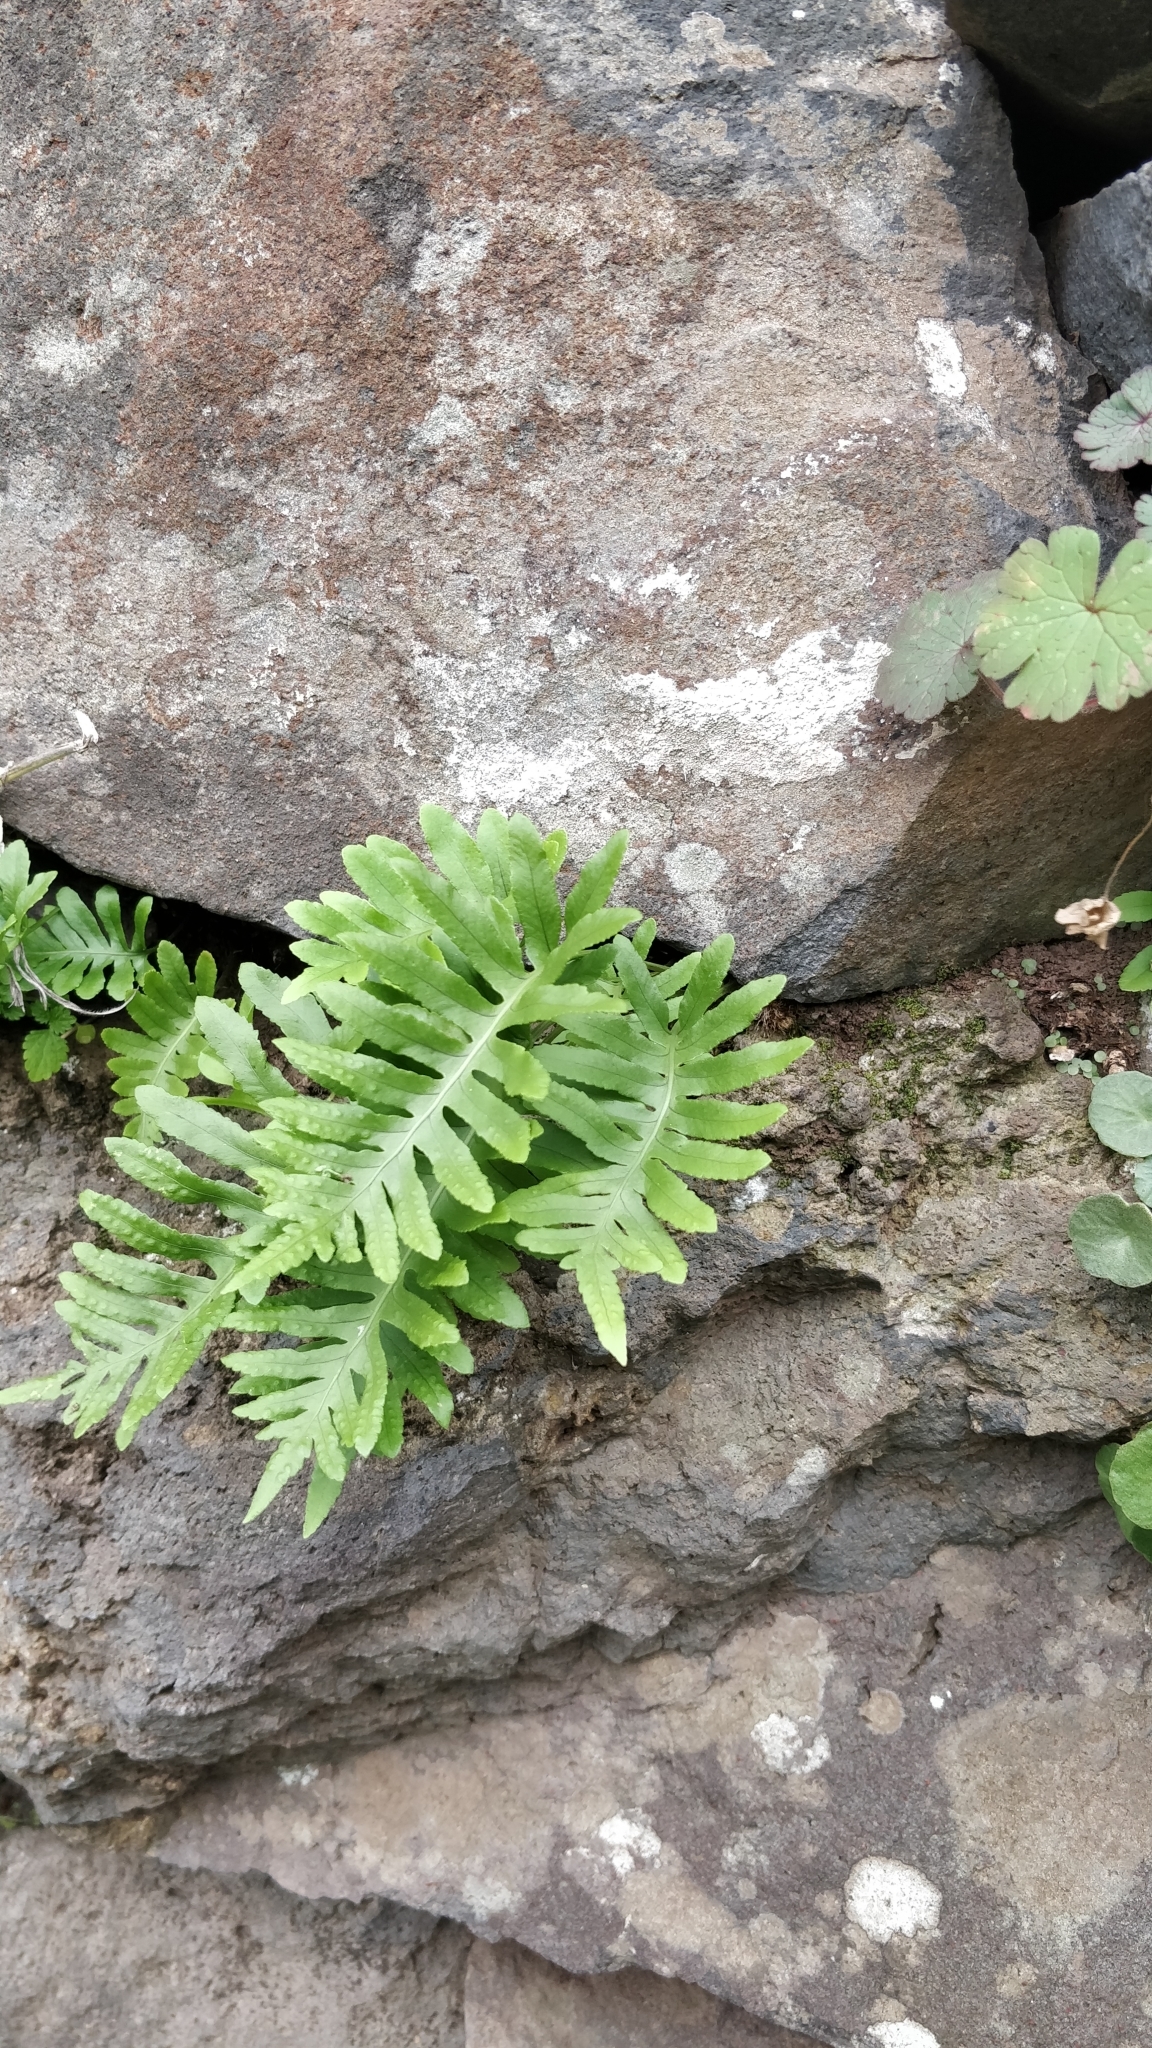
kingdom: Plantae
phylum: Tracheophyta
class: Polypodiopsida
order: Polypodiales
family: Polypodiaceae
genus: Polypodium
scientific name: Polypodium macaronesicum
